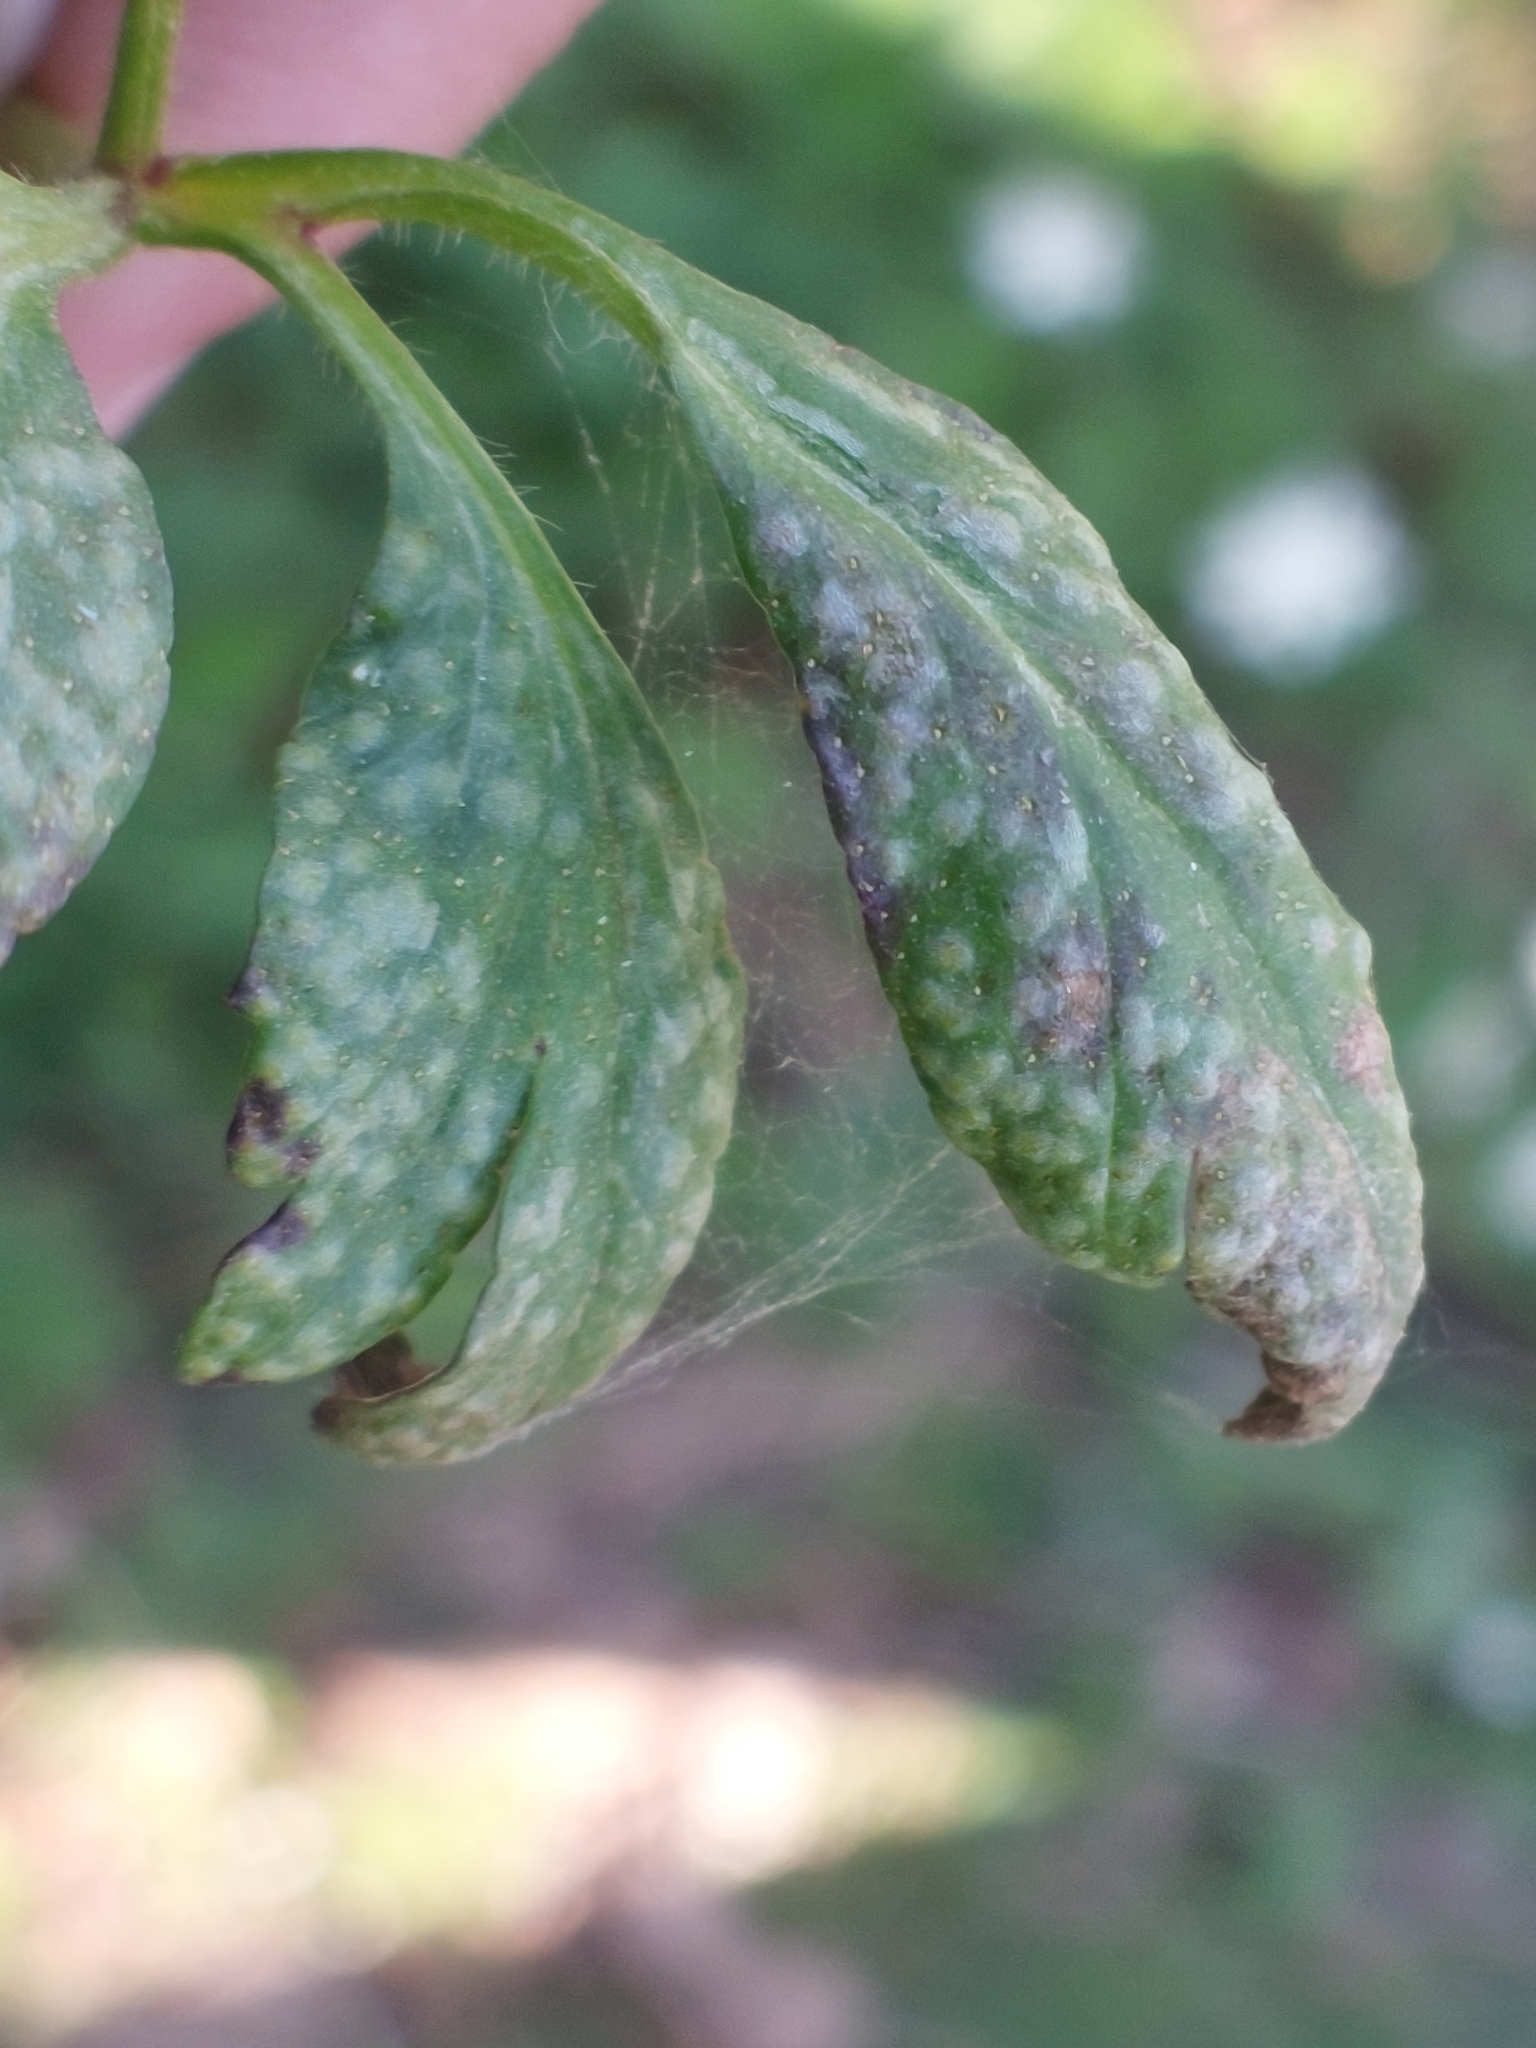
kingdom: Fungi
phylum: Basidiomycota
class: Pucciniomycetes
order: Pucciniales
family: Ochropsoraceae
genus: Ochropsora
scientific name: Ochropsora ariae
